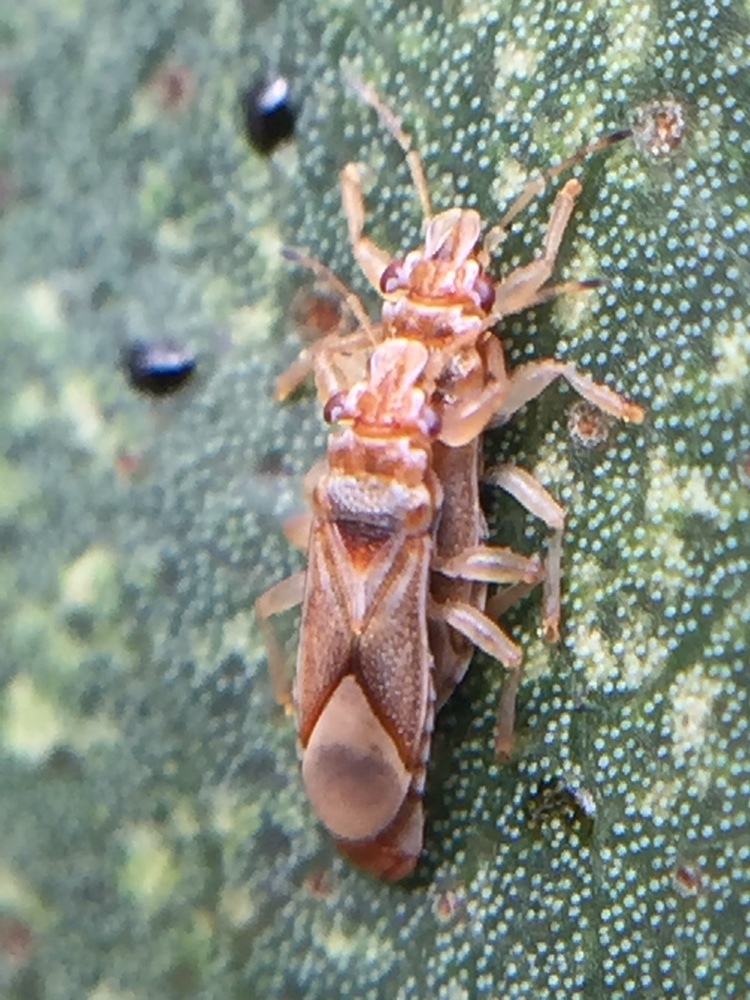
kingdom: Animalia
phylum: Arthropoda
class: Insecta
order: Hemiptera
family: Thaumastocoridae
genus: Thaumastocoris
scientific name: Thaumastocoris peregrinus
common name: Bronze bug
